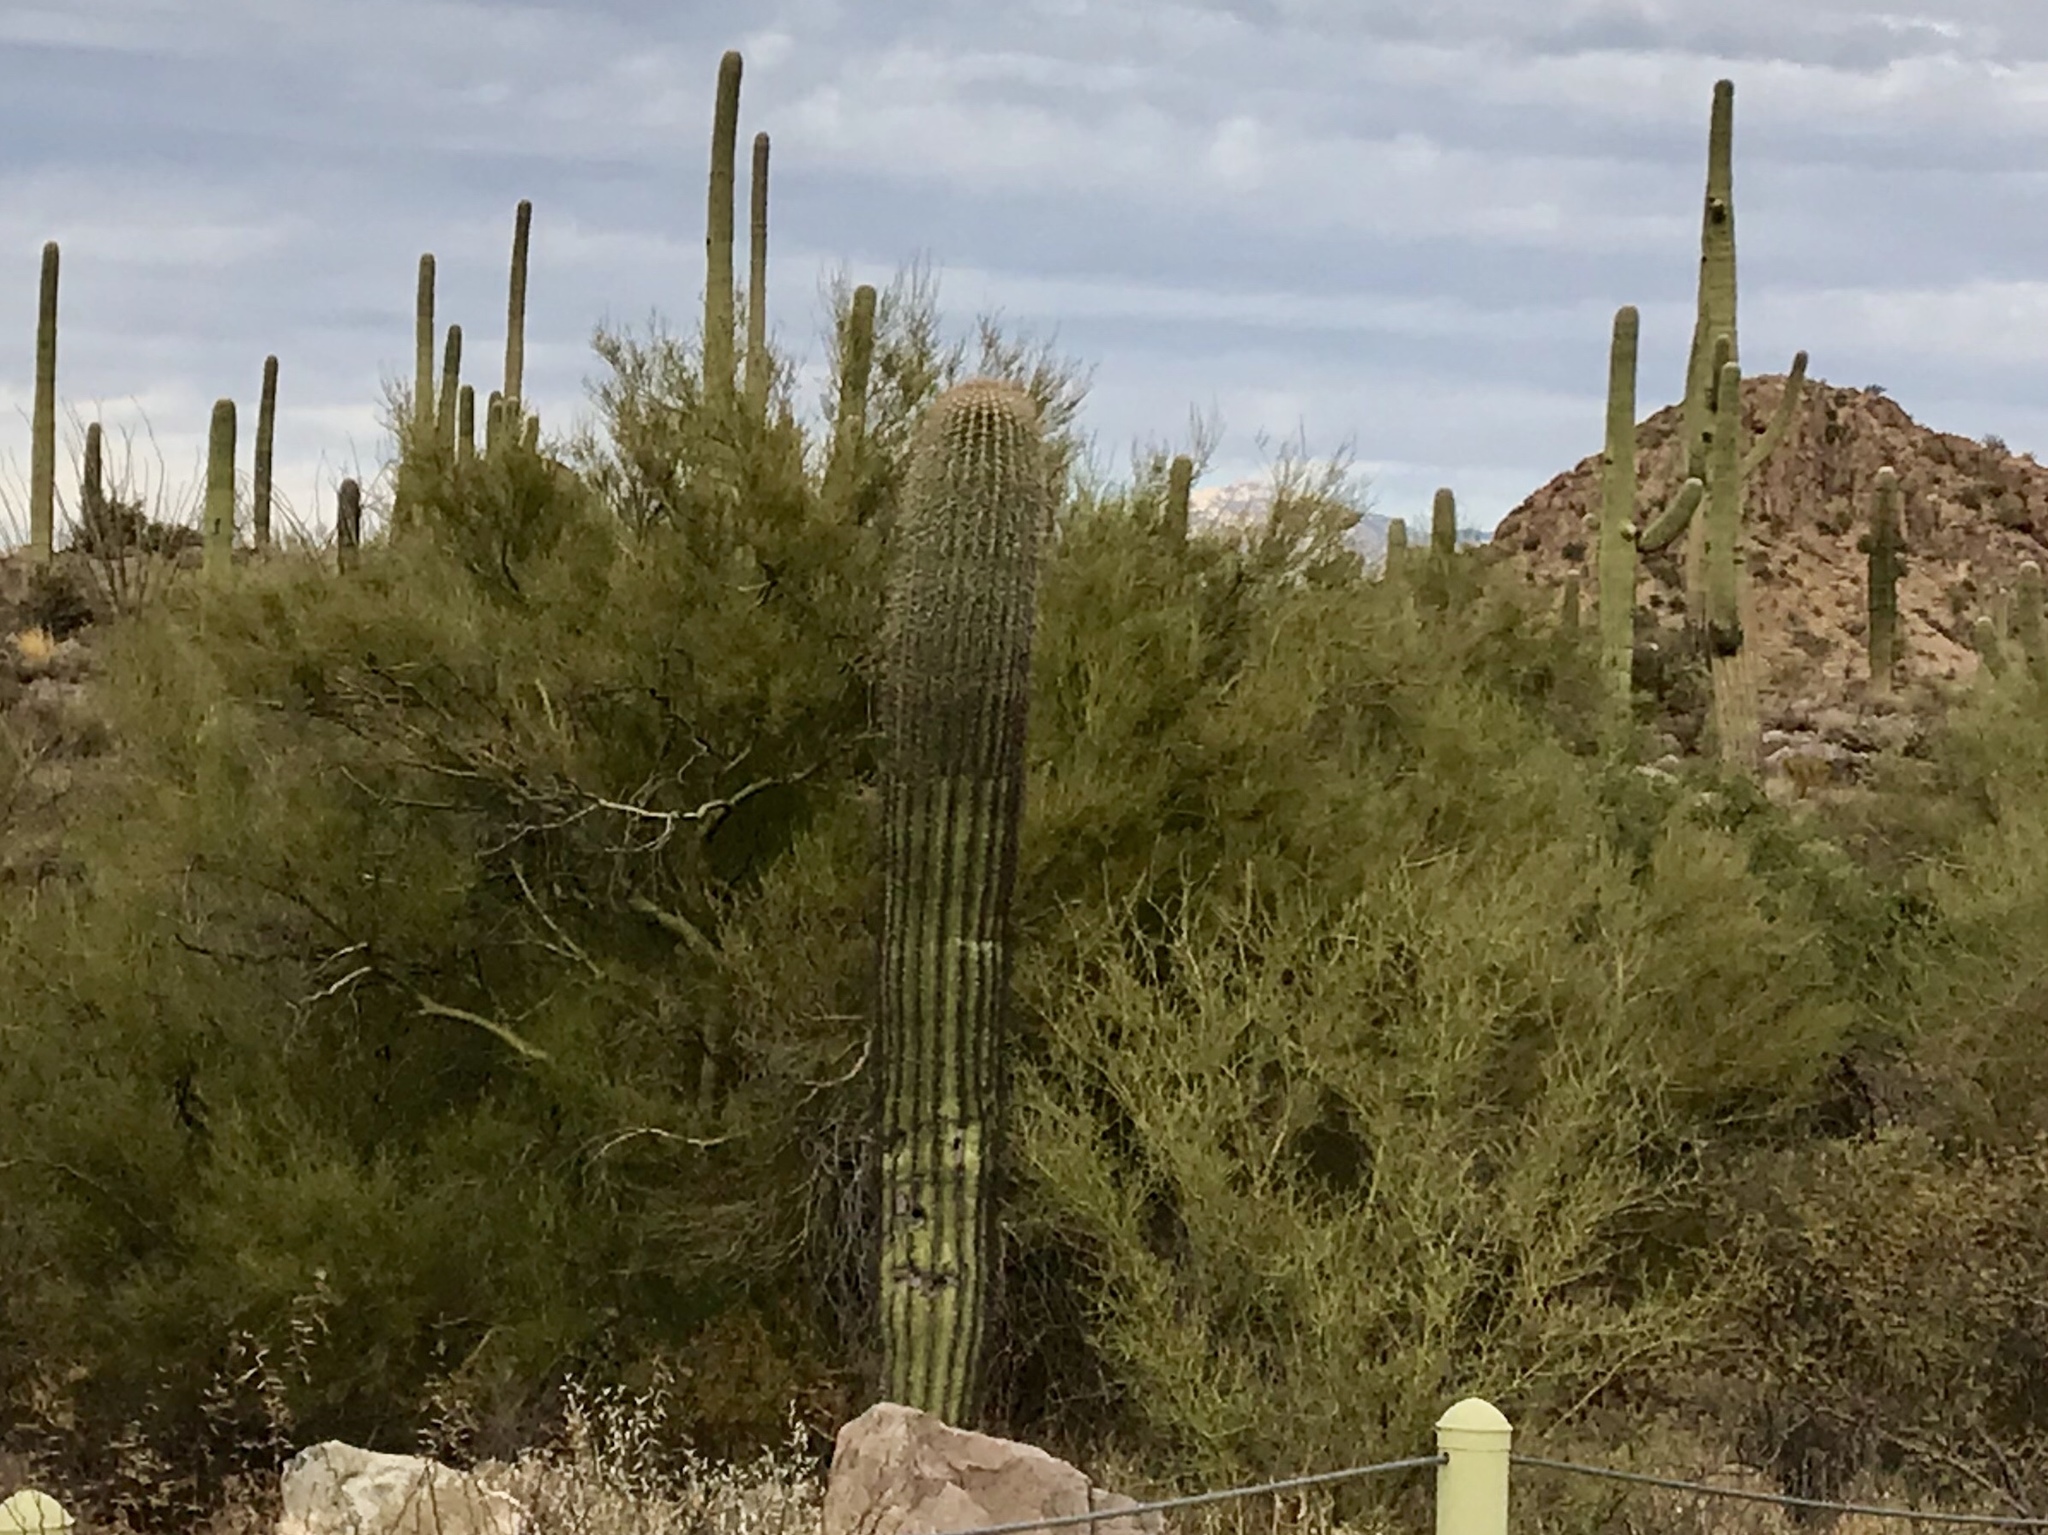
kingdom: Plantae
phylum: Tracheophyta
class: Magnoliopsida
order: Caryophyllales
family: Cactaceae
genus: Carnegiea
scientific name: Carnegiea gigantea
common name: Saguaro
